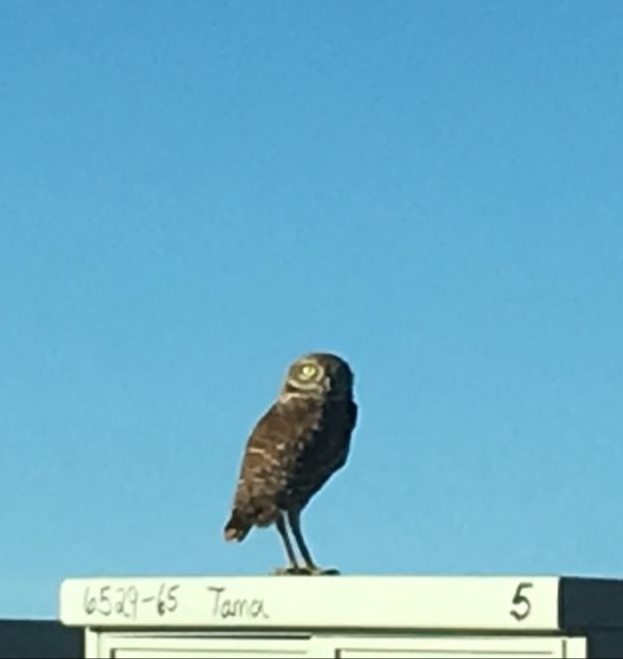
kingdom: Animalia
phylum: Chordata
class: Aves
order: Strigiformes
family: Strigidae
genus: Athene
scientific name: Athene cunicularia
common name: Burrowing owl
